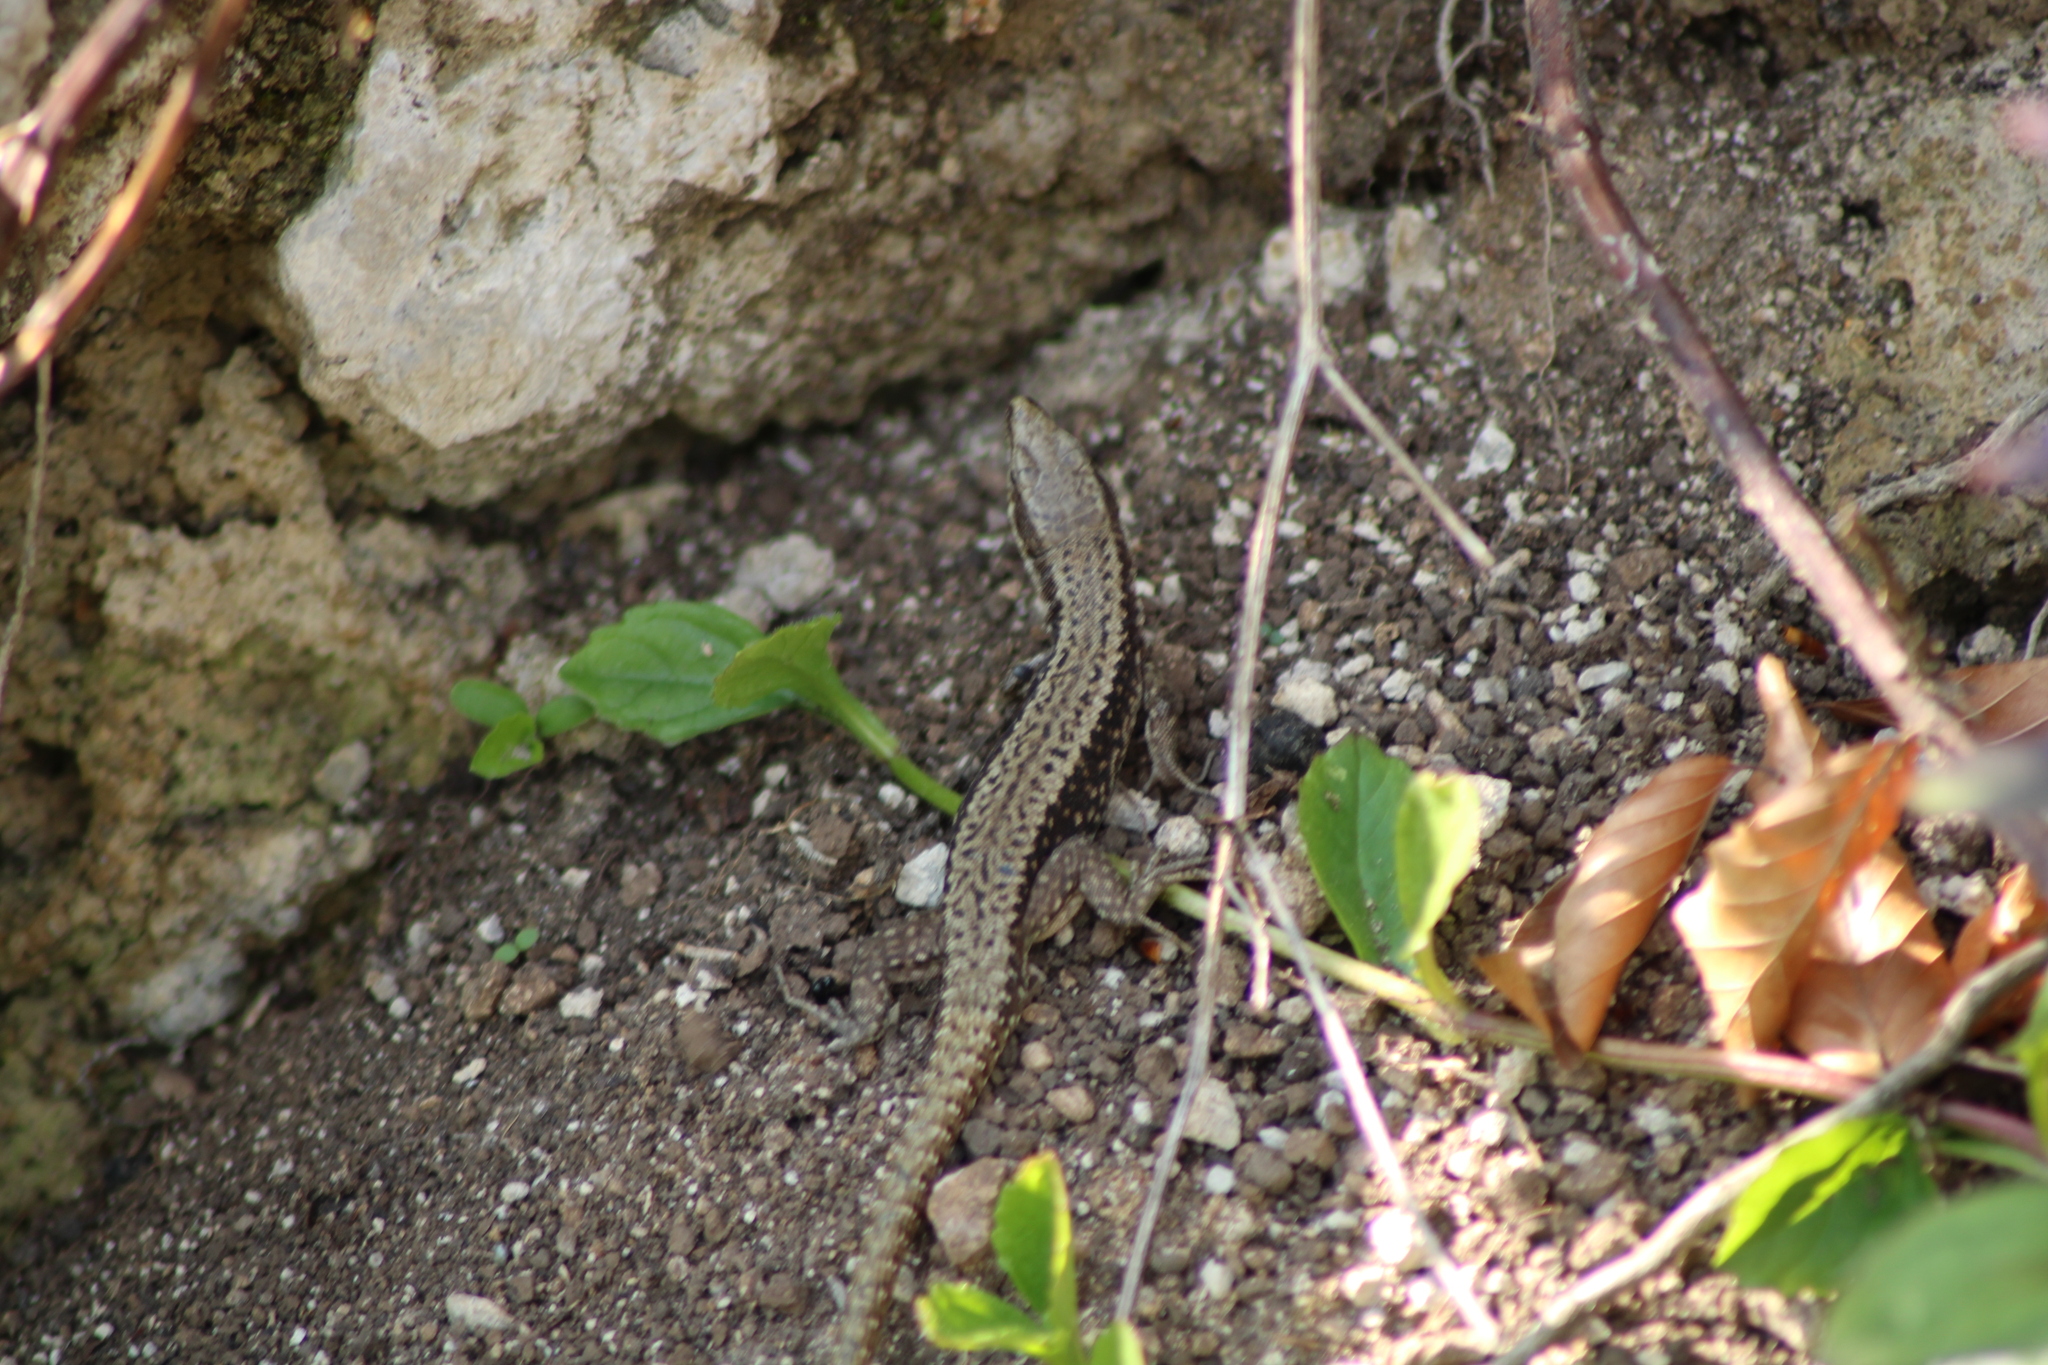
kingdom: Animalia
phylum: Chordata
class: Squamata
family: Lacertidae
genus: Podarcis
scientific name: Podarcis muralis
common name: Common wall lizard
